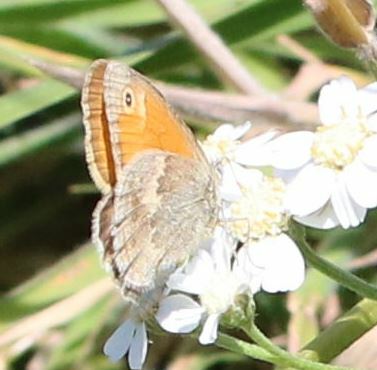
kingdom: Animalia
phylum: Arthropoda
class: Insecta
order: Lepidoptera
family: Nymphalidae
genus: Coenonympha
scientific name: Coenonympha pamphilus
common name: Small heath
